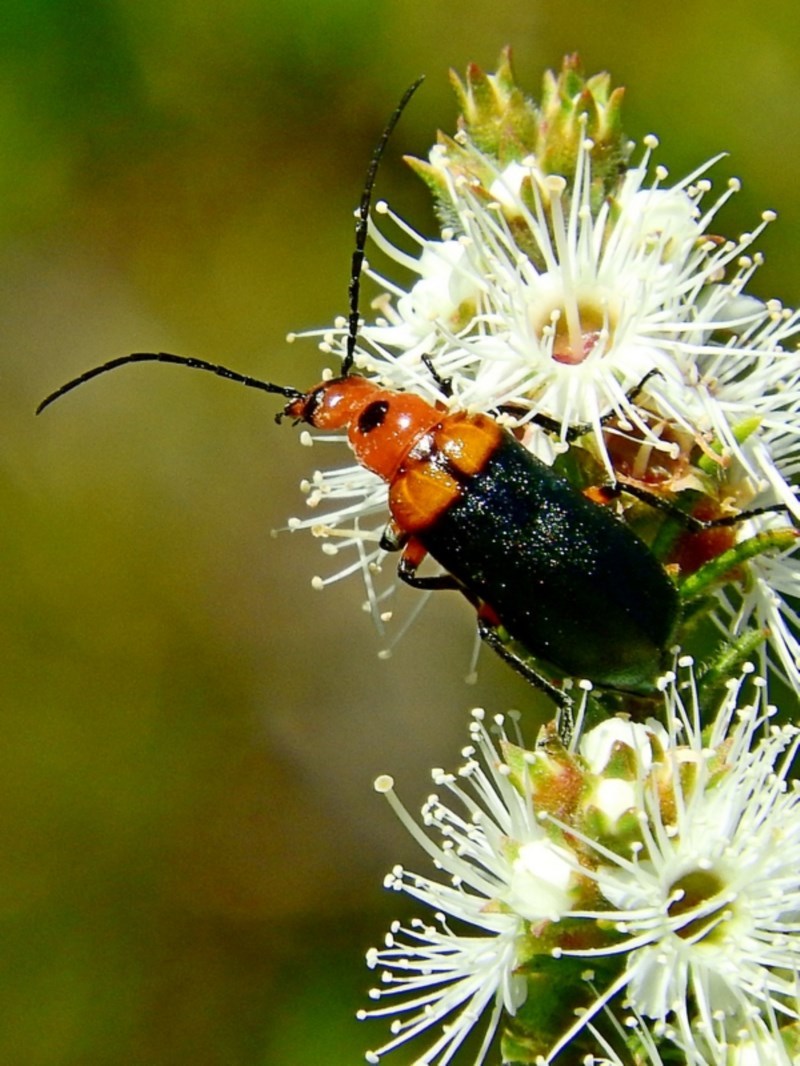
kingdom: Animalia
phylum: Arthropoda
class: Insecta
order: Coleoptera
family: Meloidae
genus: Australozonitis
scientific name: Australozonitis
